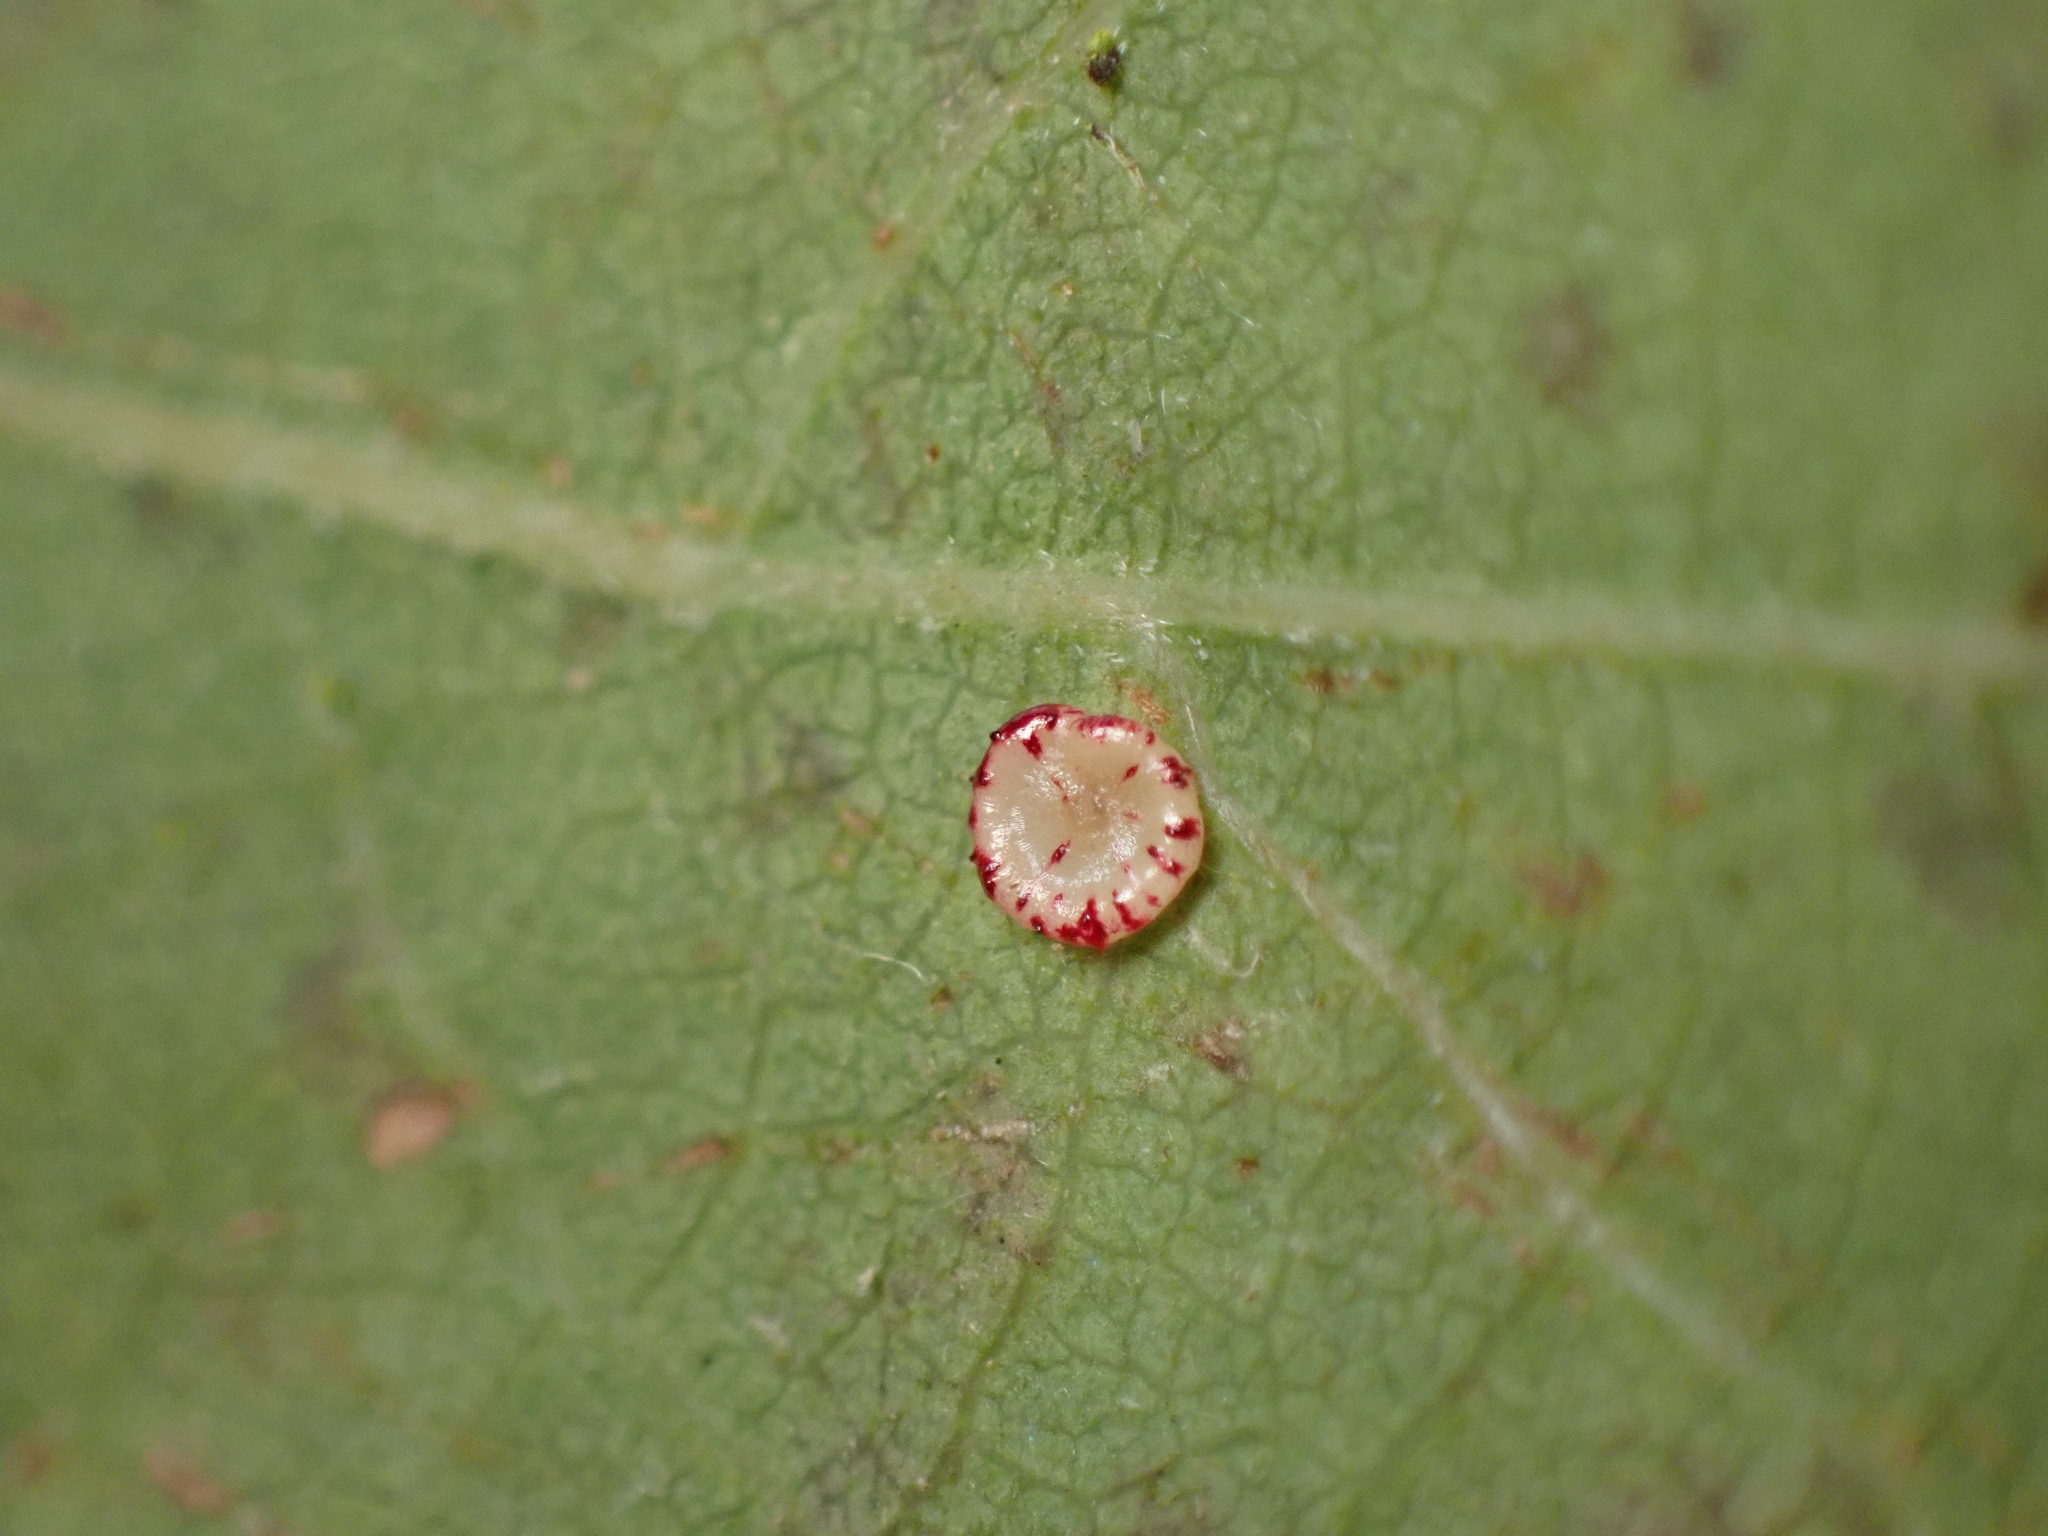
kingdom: Animalia
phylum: Arthropoda
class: Insecta
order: Hymenoptera
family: Cynipidae
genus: Andricus
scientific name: Andricus
